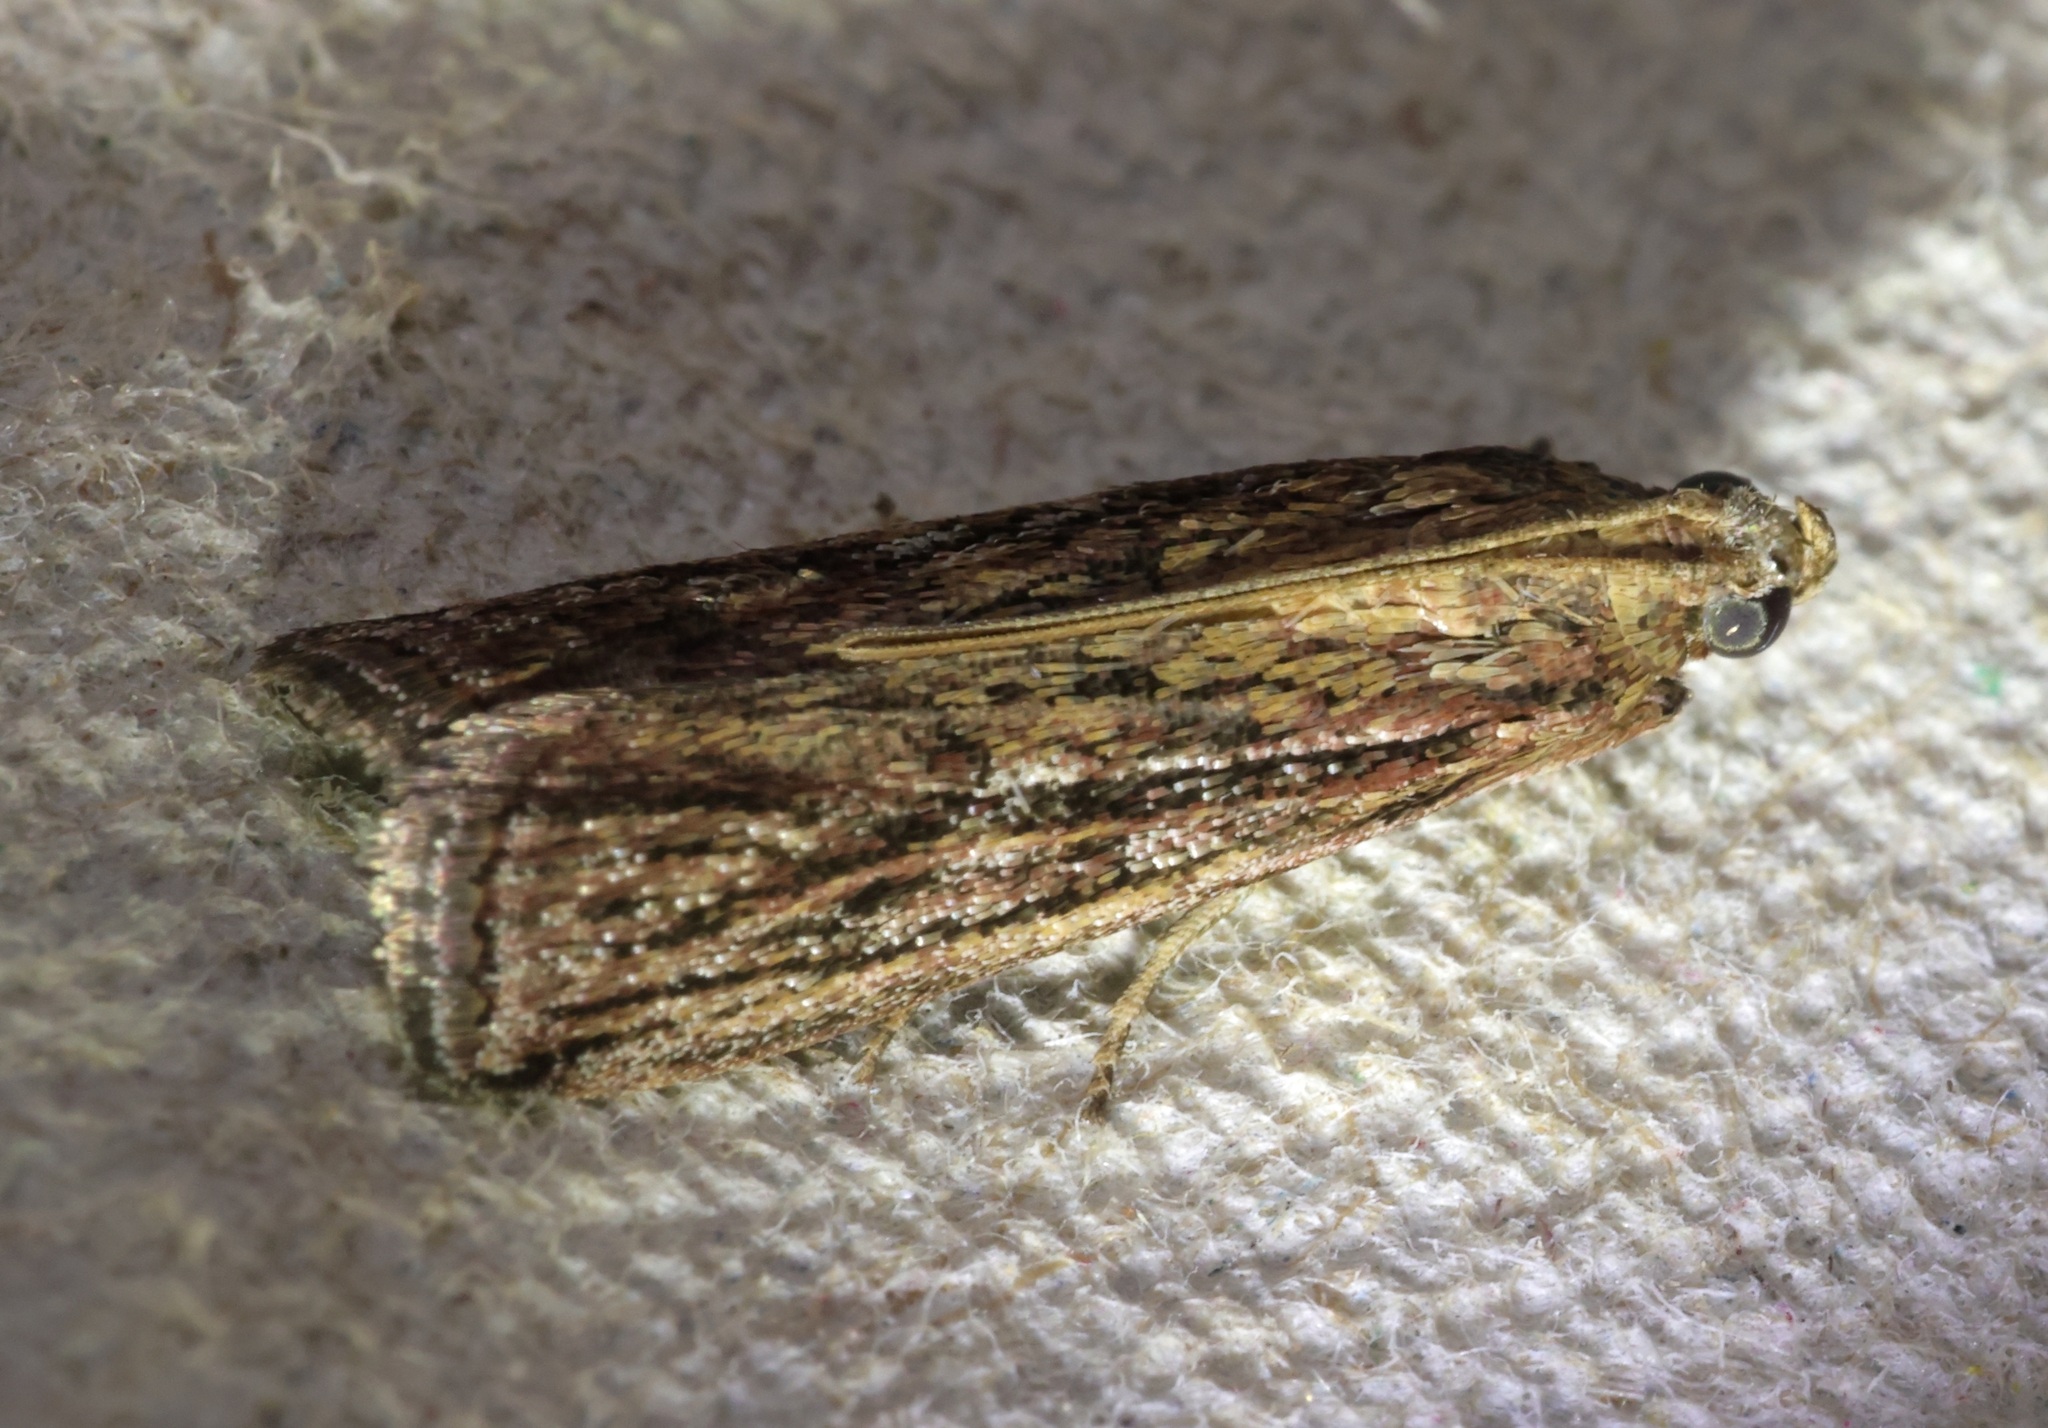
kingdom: Animalia
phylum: Arthropoda
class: Insecta
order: Lepidoptera
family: Pyralidae
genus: Zonula
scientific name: Zonula
